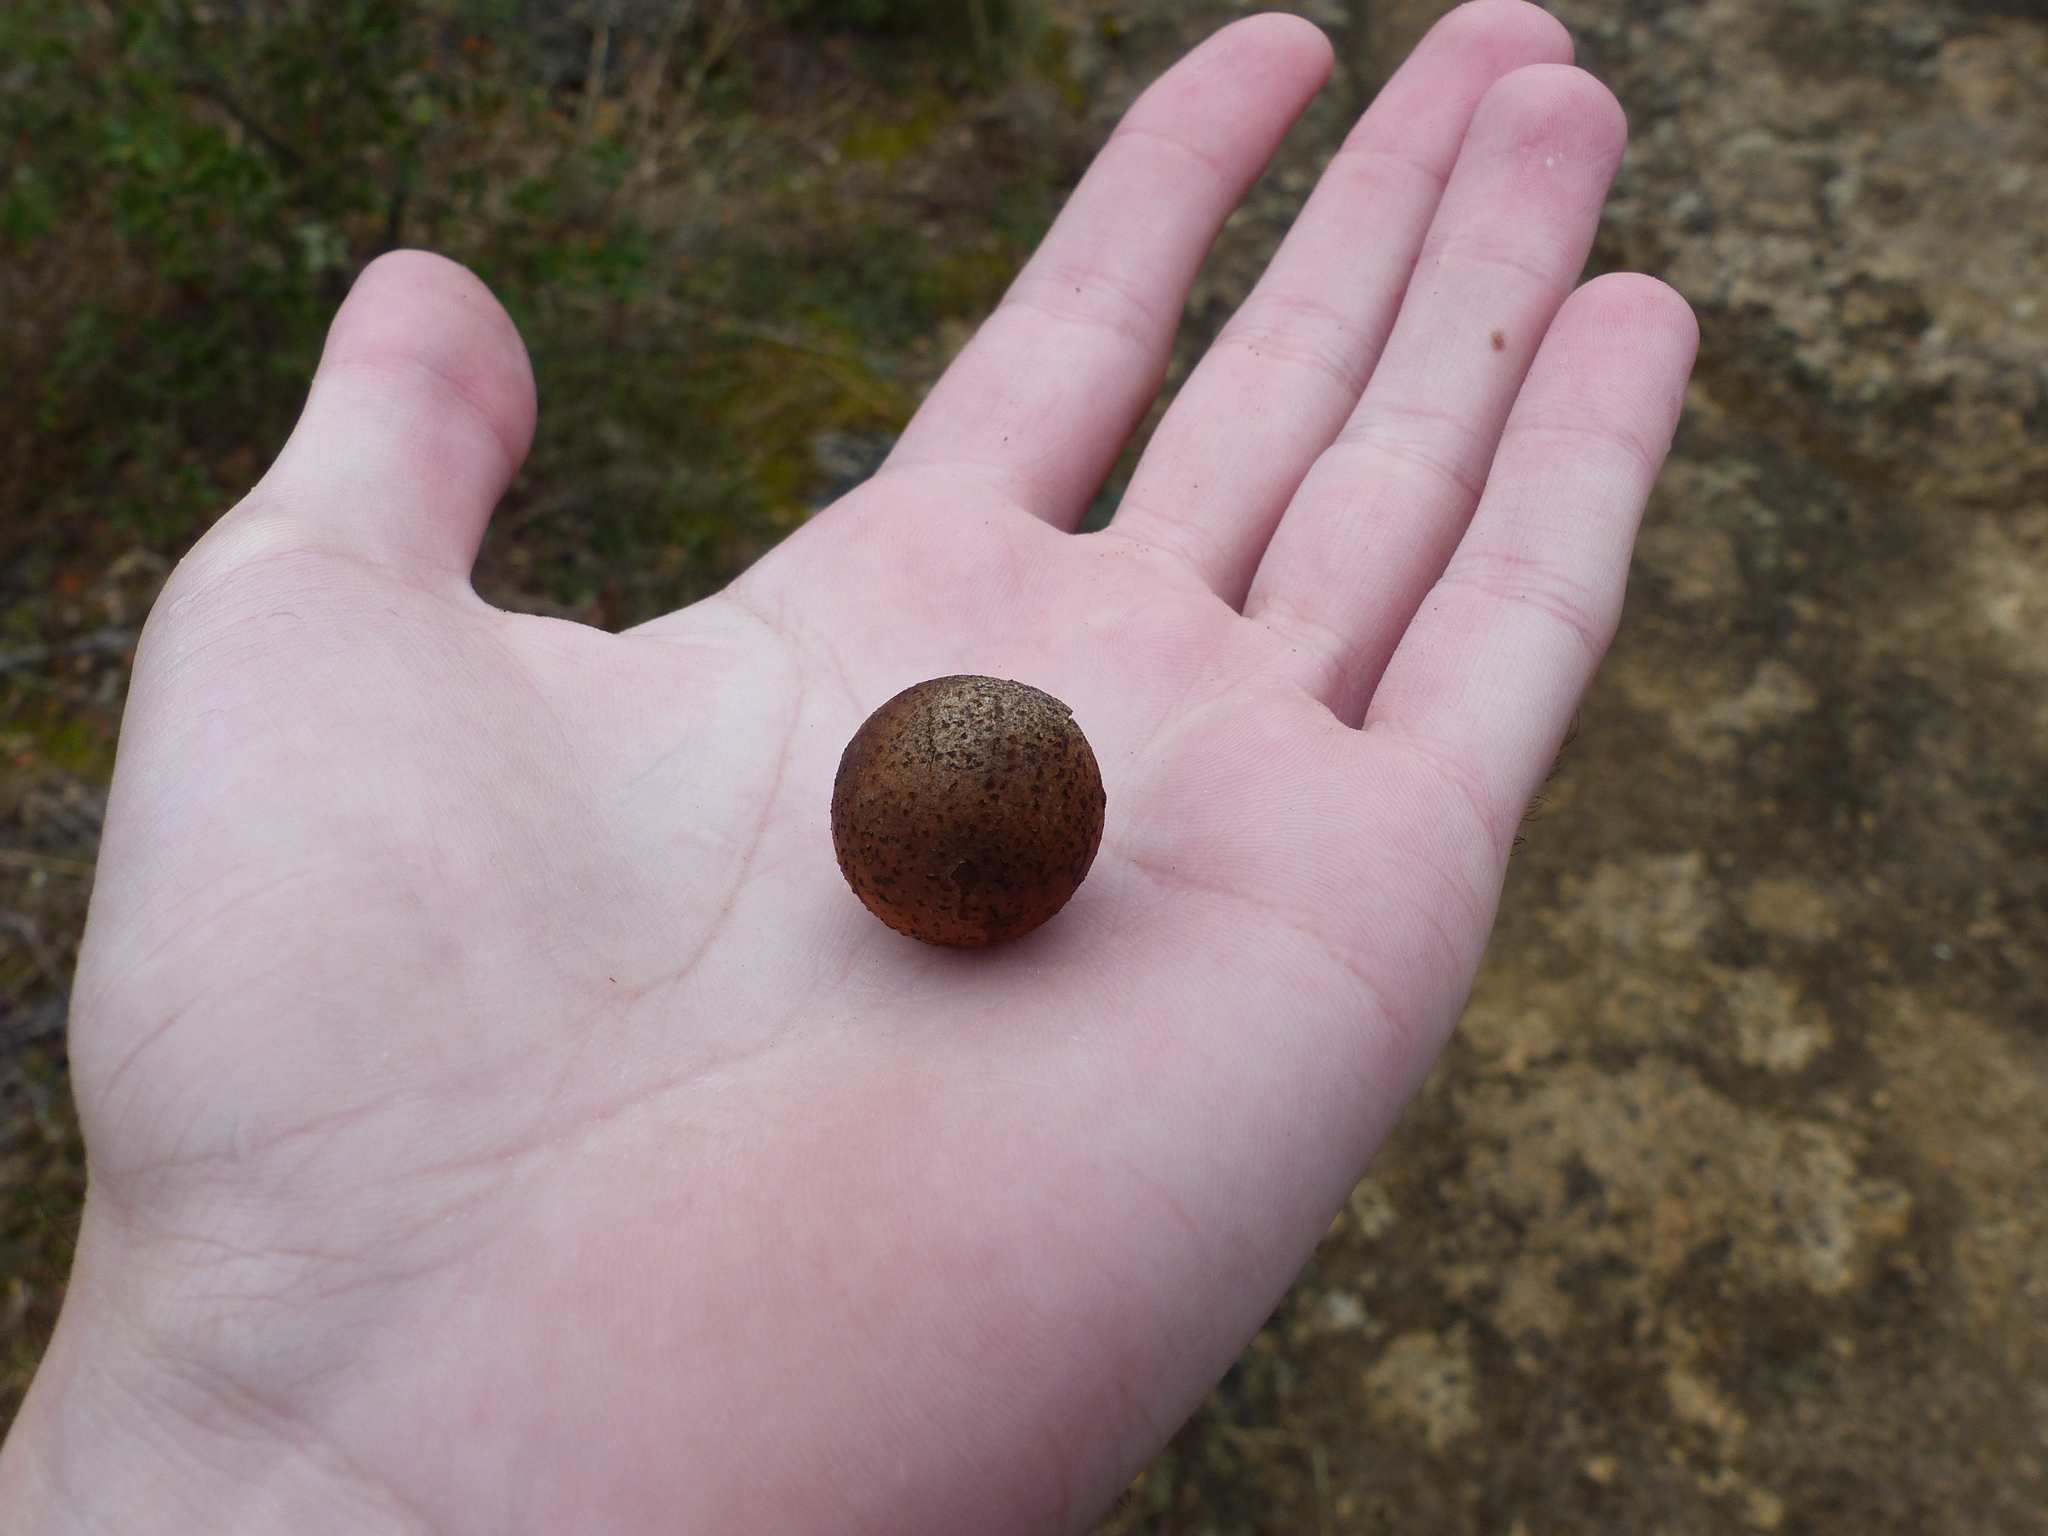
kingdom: Animalia
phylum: Arthropoda
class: Insecta
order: Hymenoptera
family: Cynipidae
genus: Andricus
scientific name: Andricus kollari
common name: Marble gall
